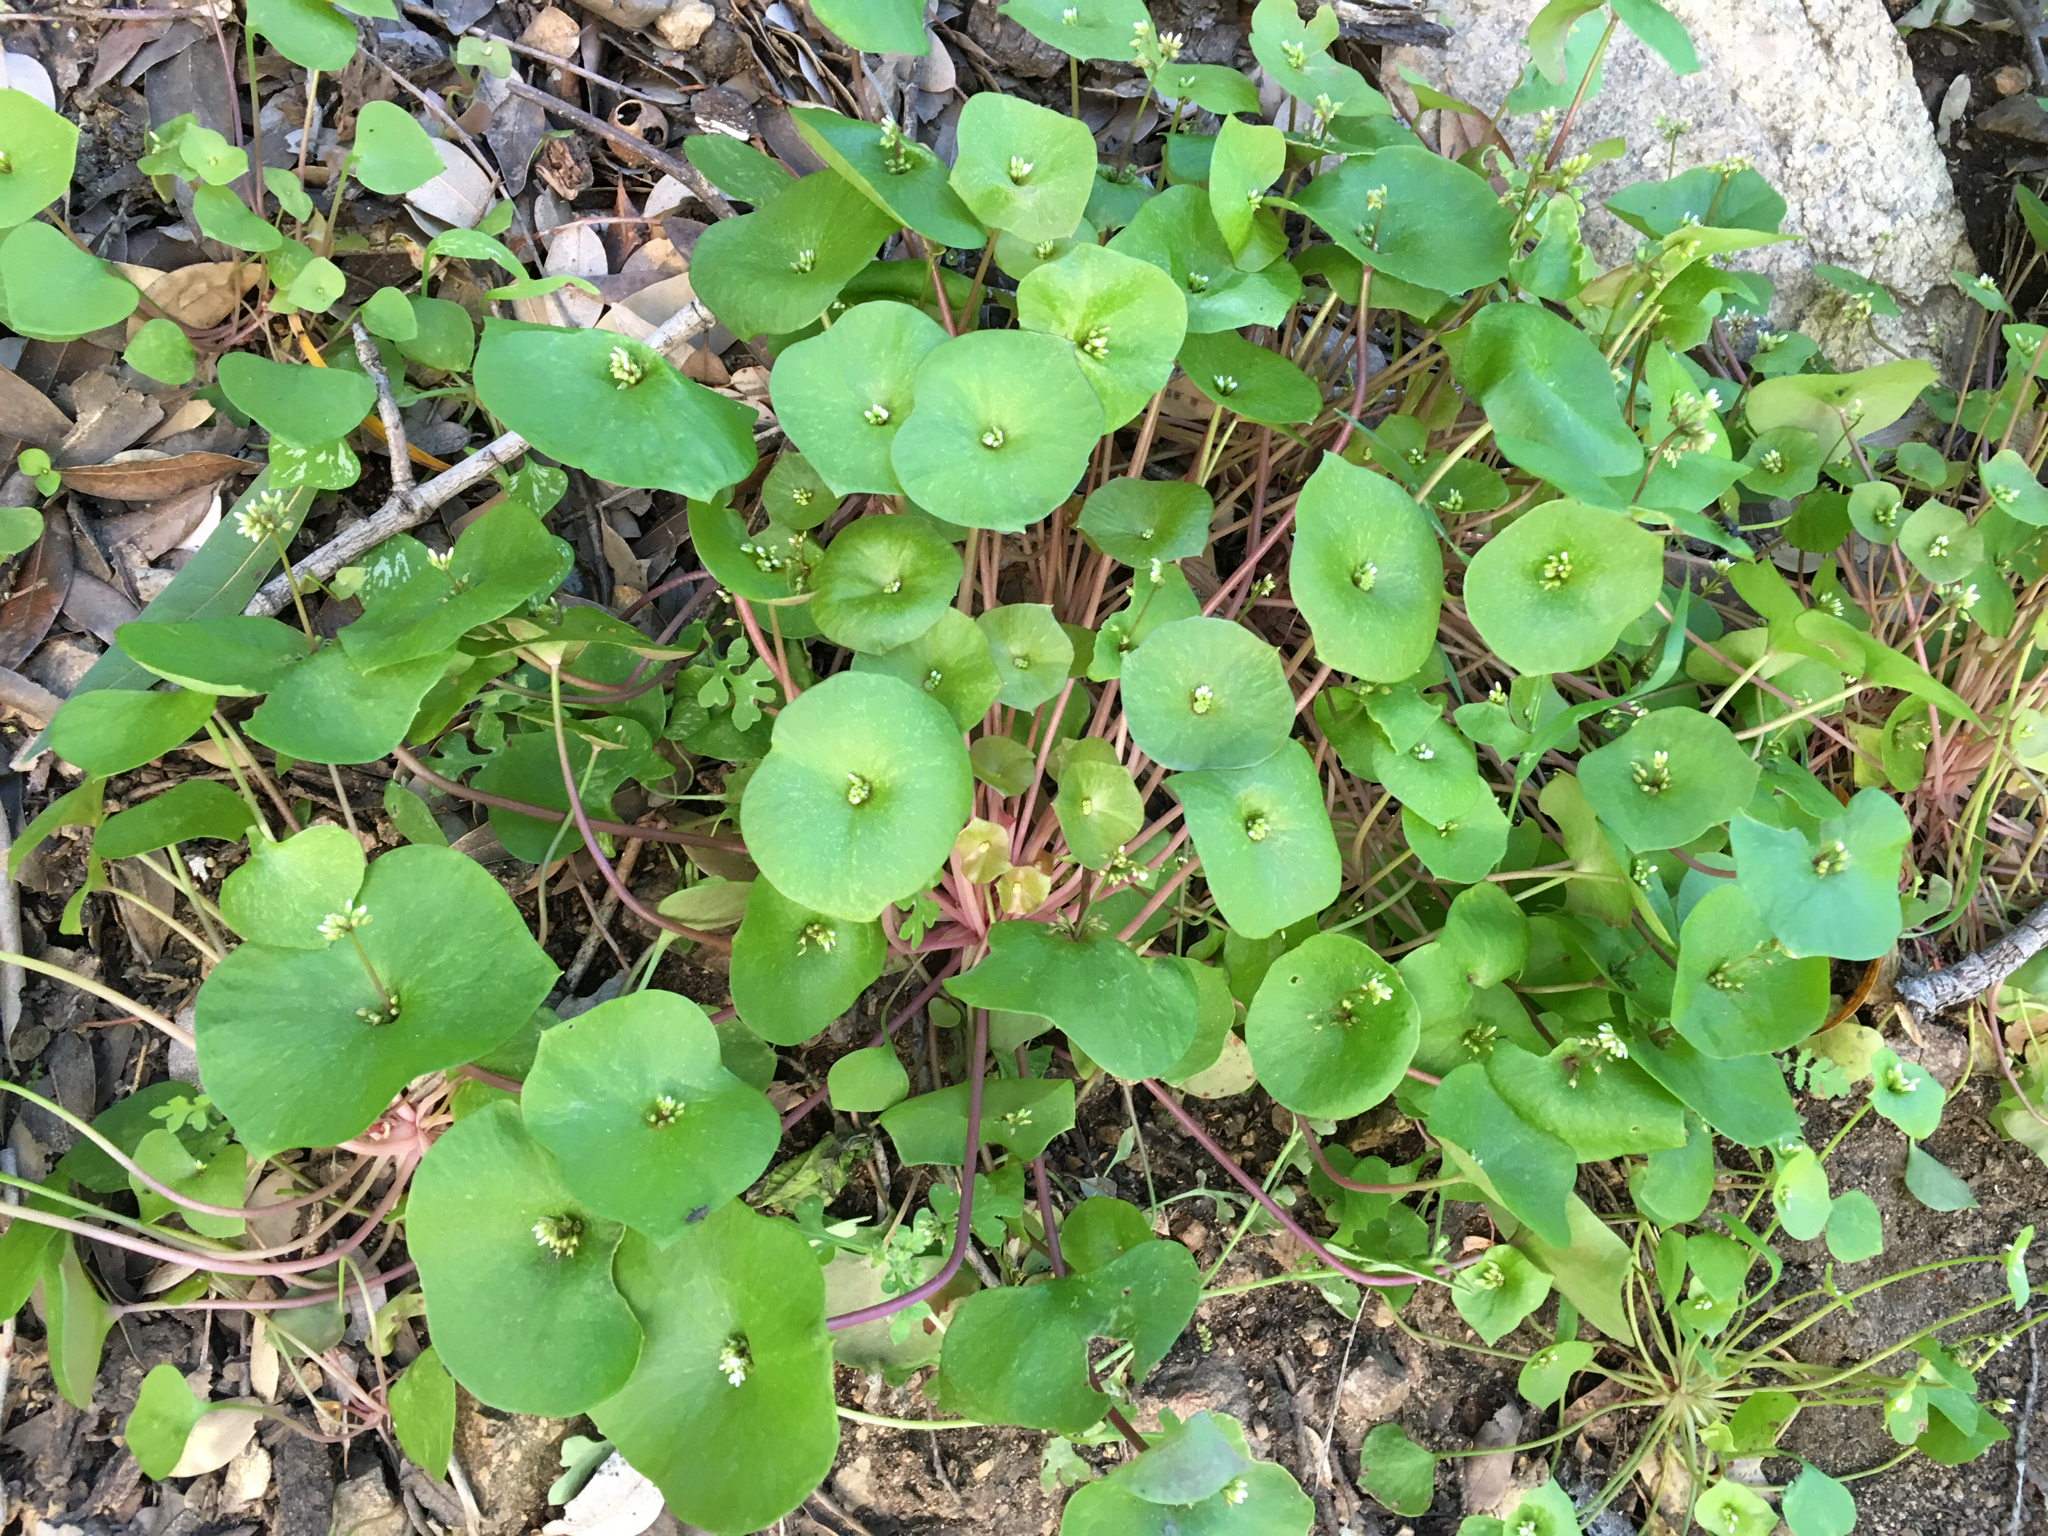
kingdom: Plantae
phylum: Tracheophyta
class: Magnoliopsida
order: Caryophyllales
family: Montiaceae
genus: Claytonia
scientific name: Claytonia perfoliata
